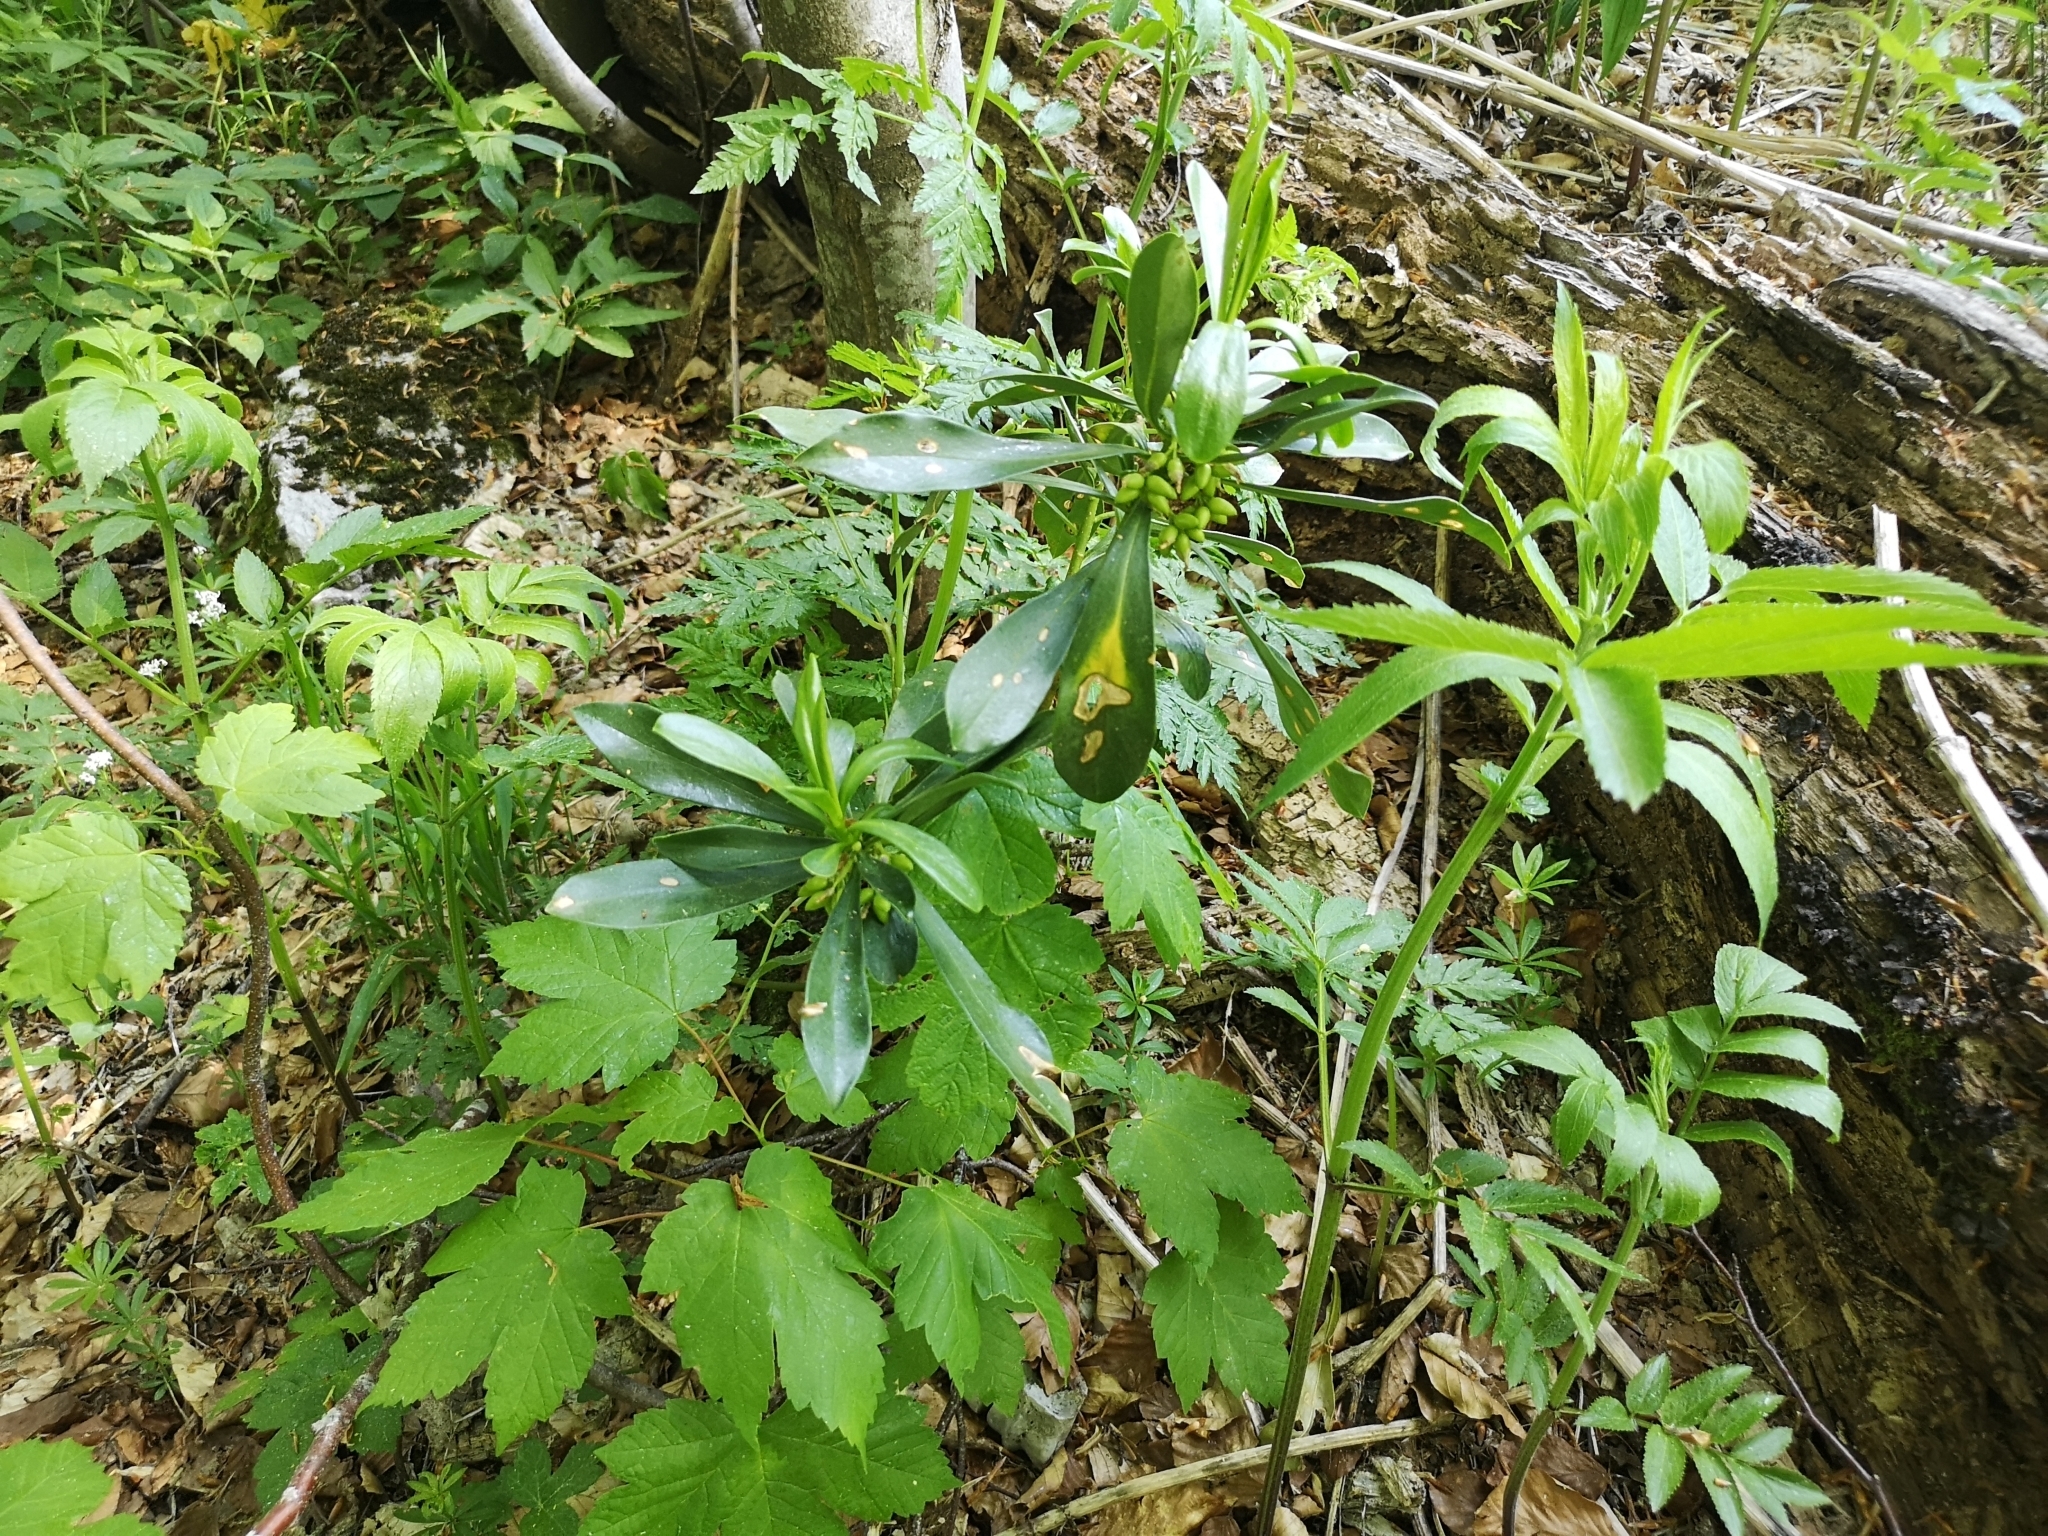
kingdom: Plantae
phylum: Tracheophyta
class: Magnoliopsida
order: Malvales
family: Thymelaeaceae
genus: Daphne
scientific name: Daphne laureola
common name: Spurge-laurel
